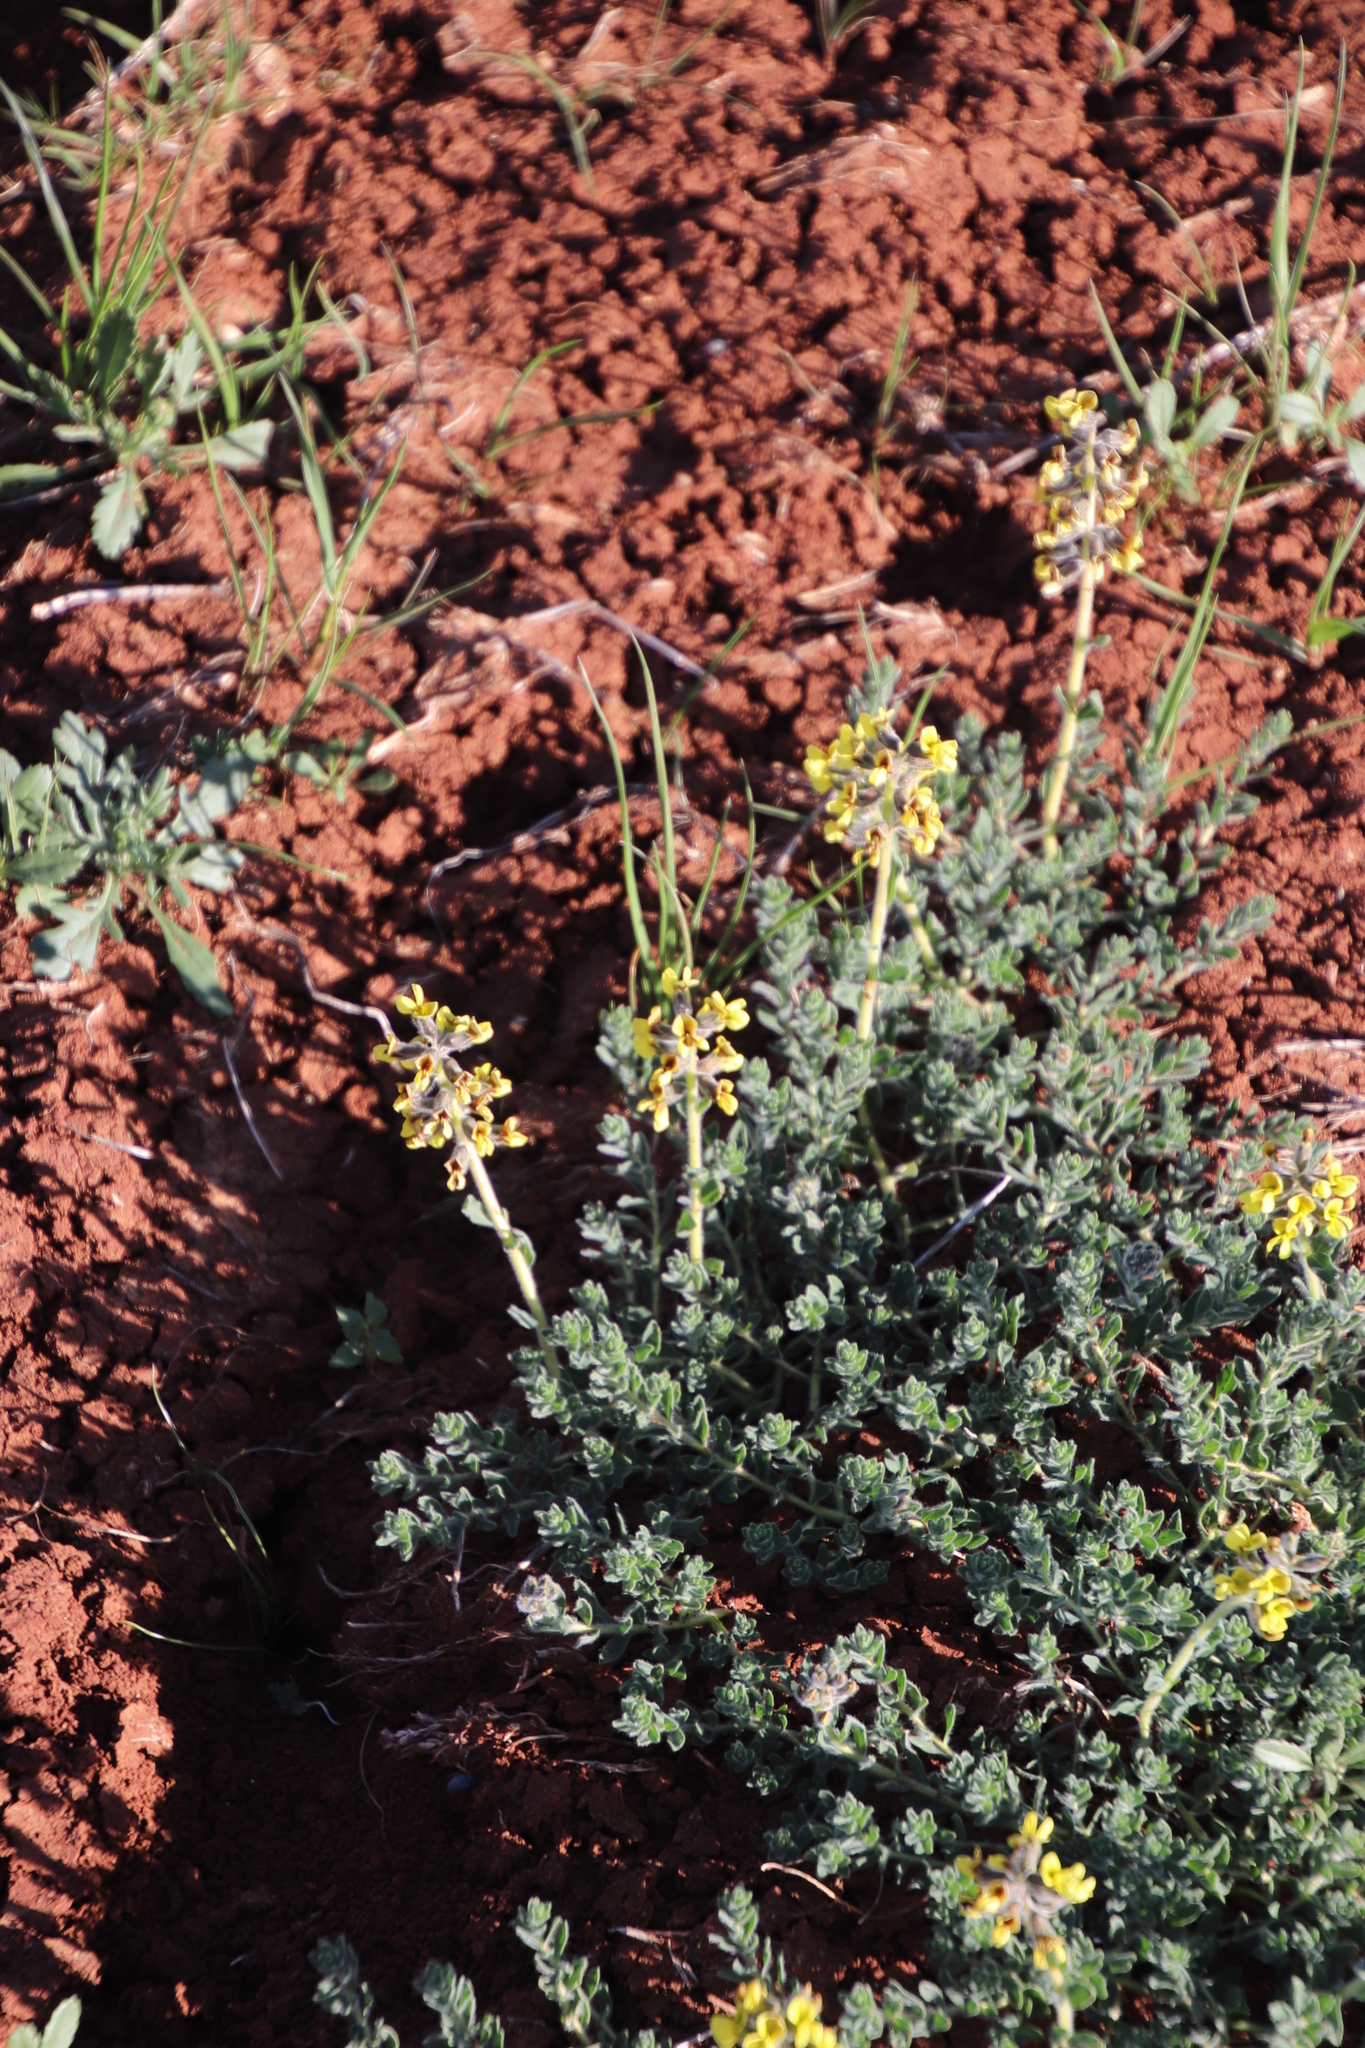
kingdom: Plantae
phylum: Tracheophyta
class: Magnoliopsida
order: Fabales
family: Fabaceae
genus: Euchlora
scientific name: Euchlora hirsuta
